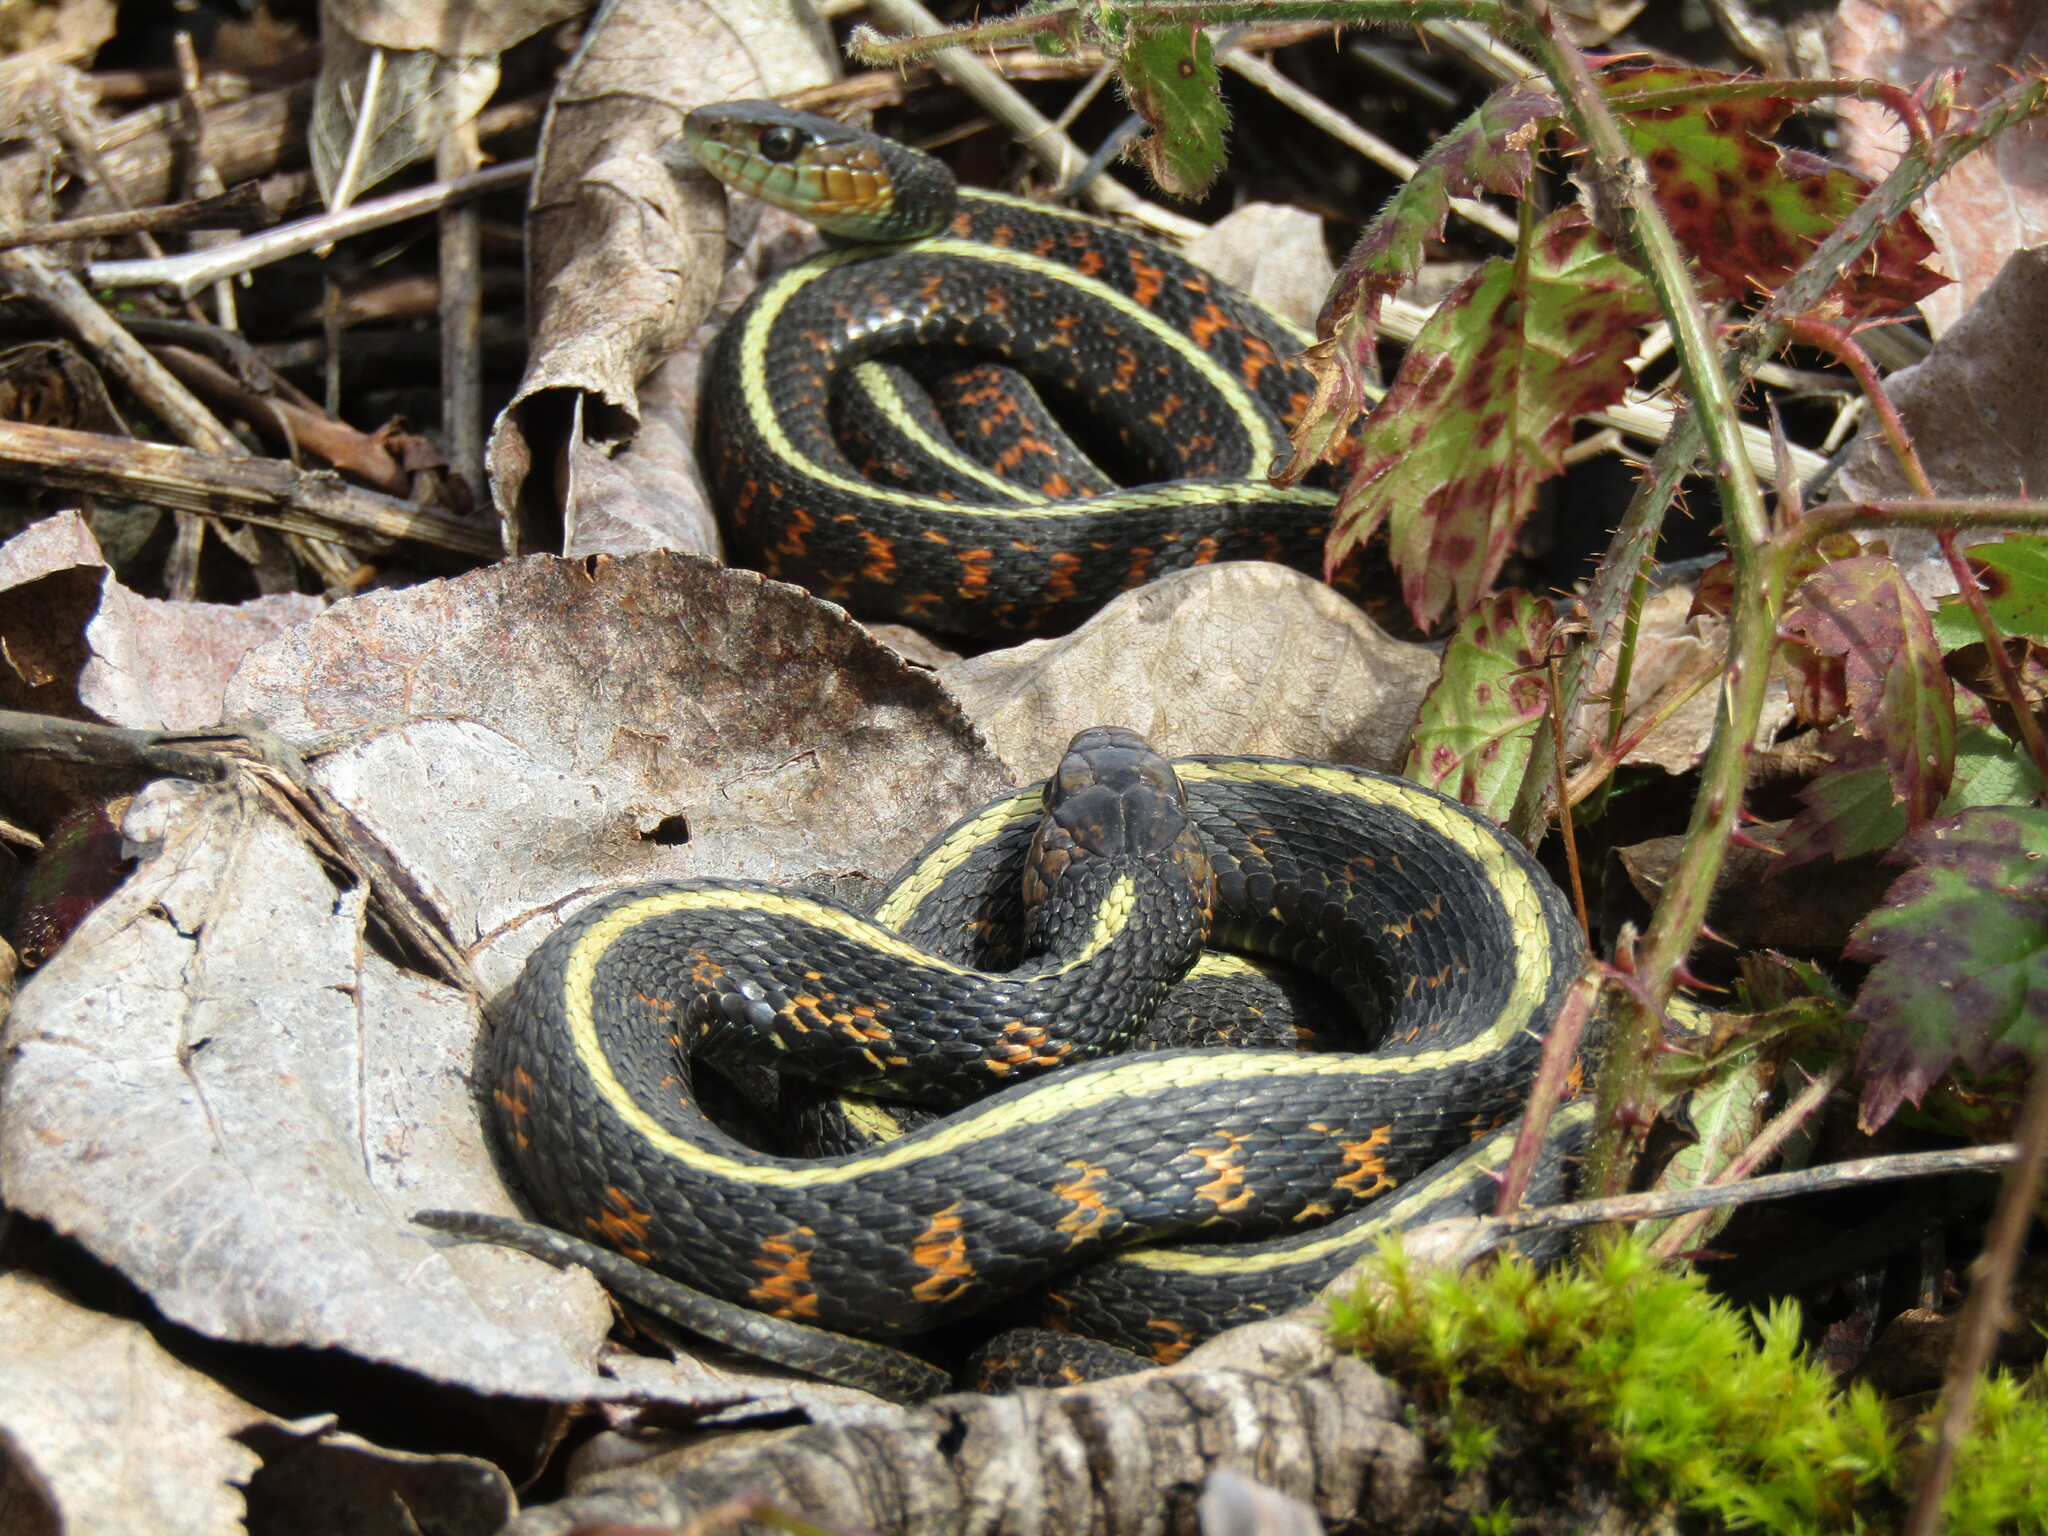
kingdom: Animalia
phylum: Chordata
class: Squamata
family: Colubridae
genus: Thamnophis
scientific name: Thamnophis sirtalis
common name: Common garter snake
